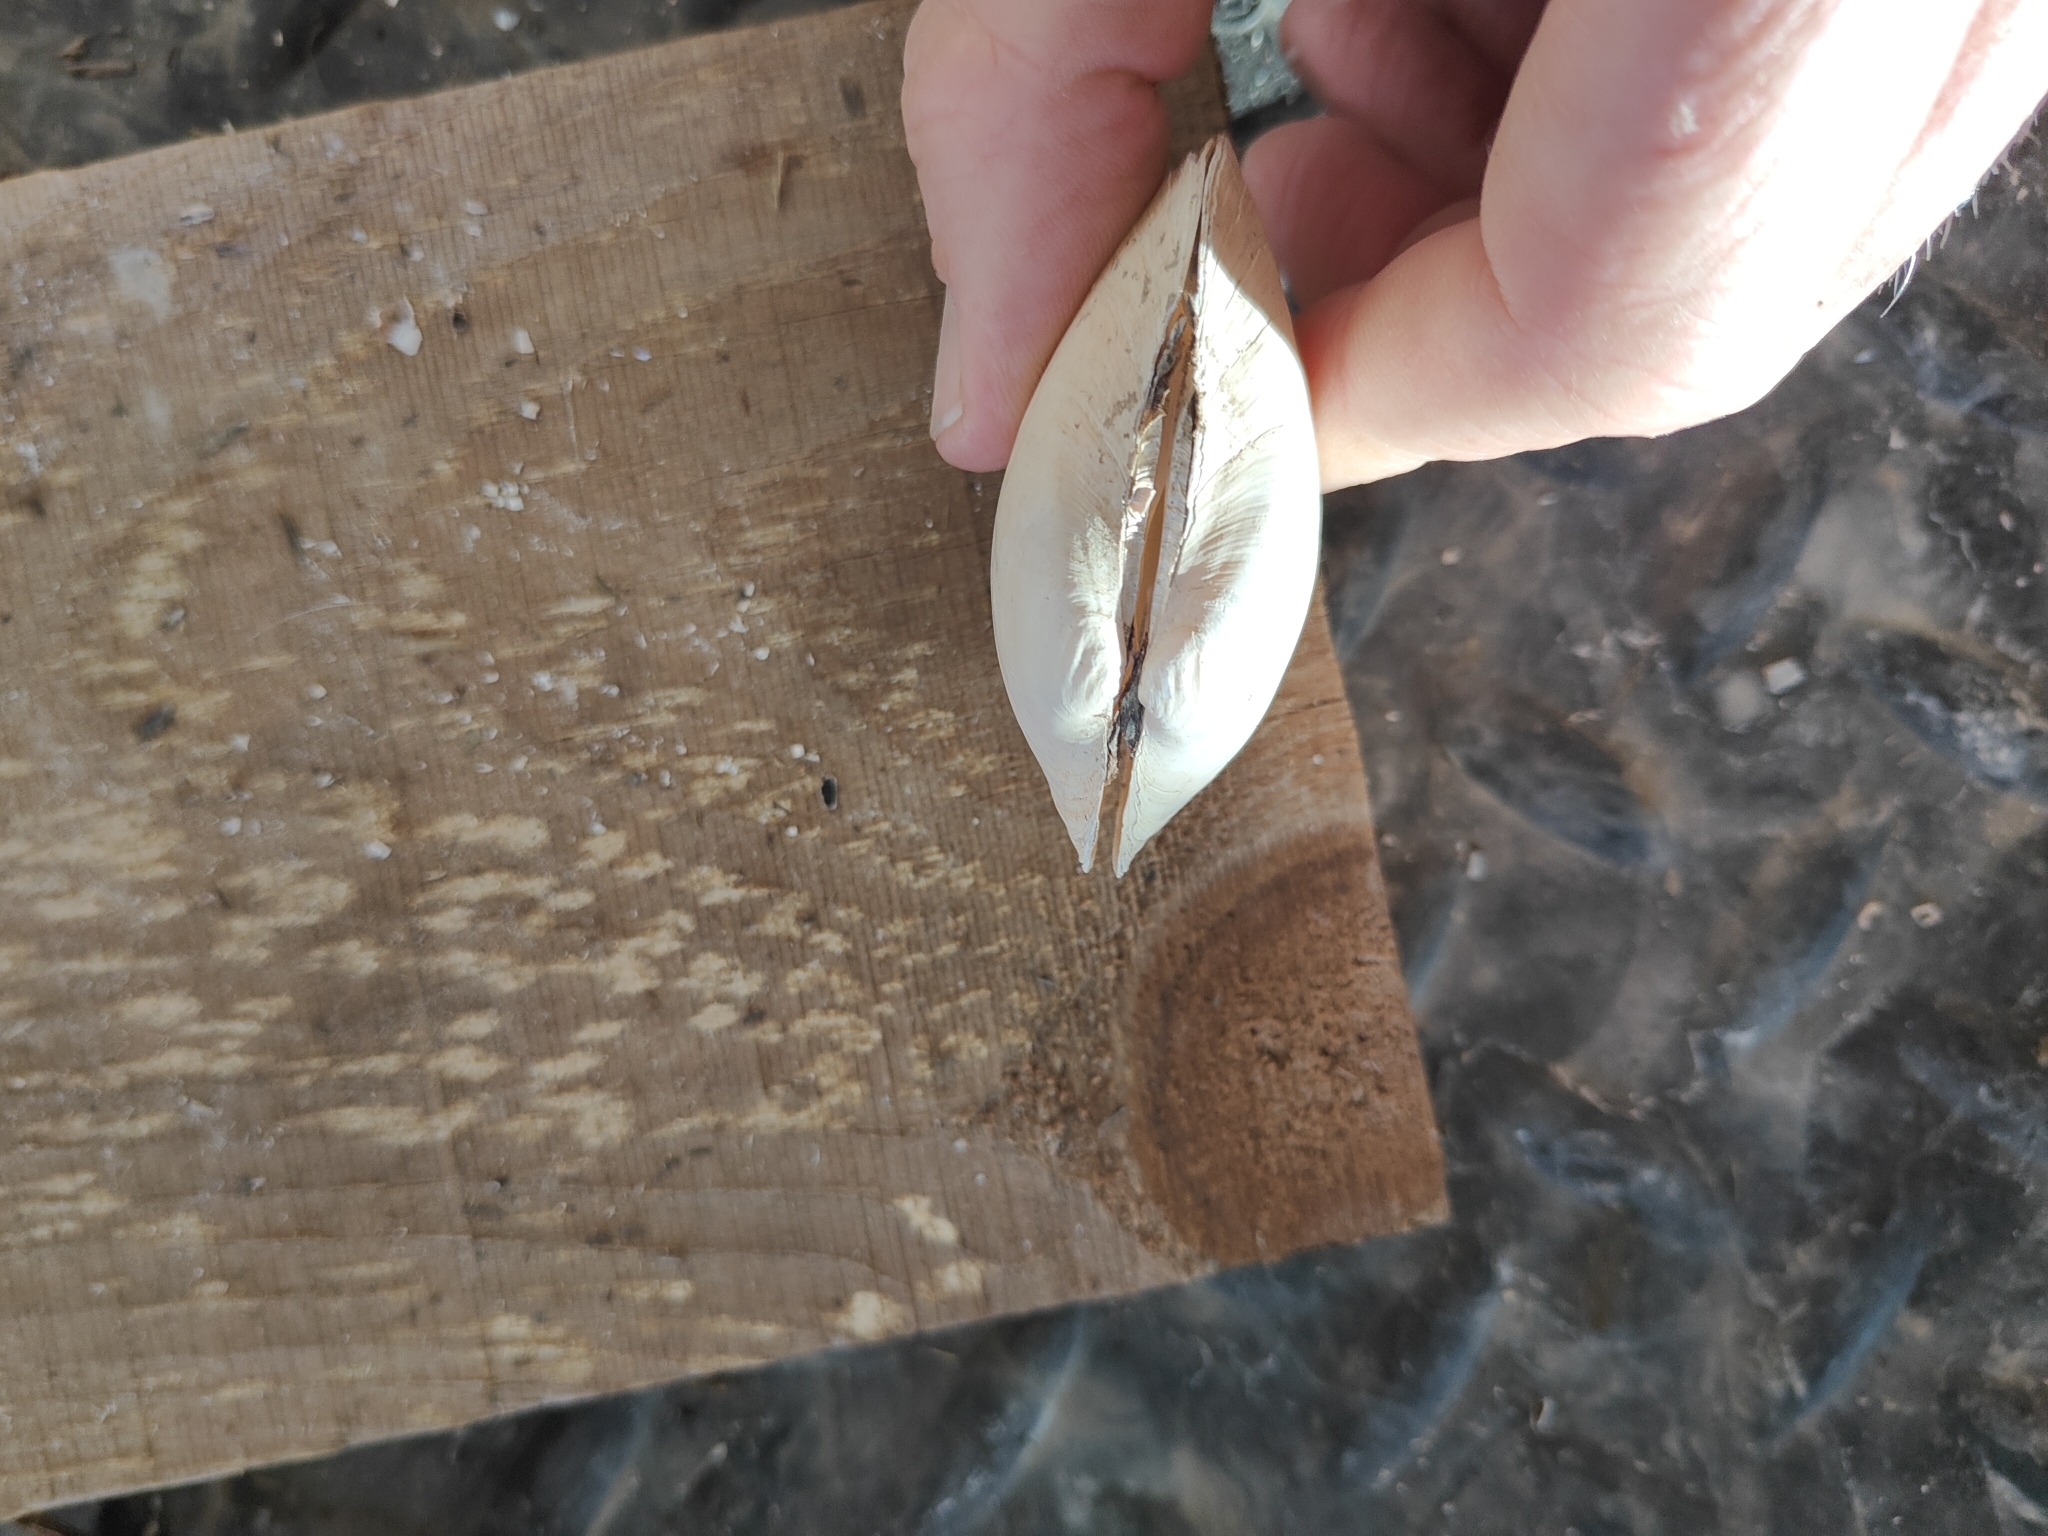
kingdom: Animalia
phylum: Mollusca
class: Bivalvia
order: Unionida
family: Unionidae
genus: Lampsilis
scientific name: Lampsilis cardium
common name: Plain pocketbook
